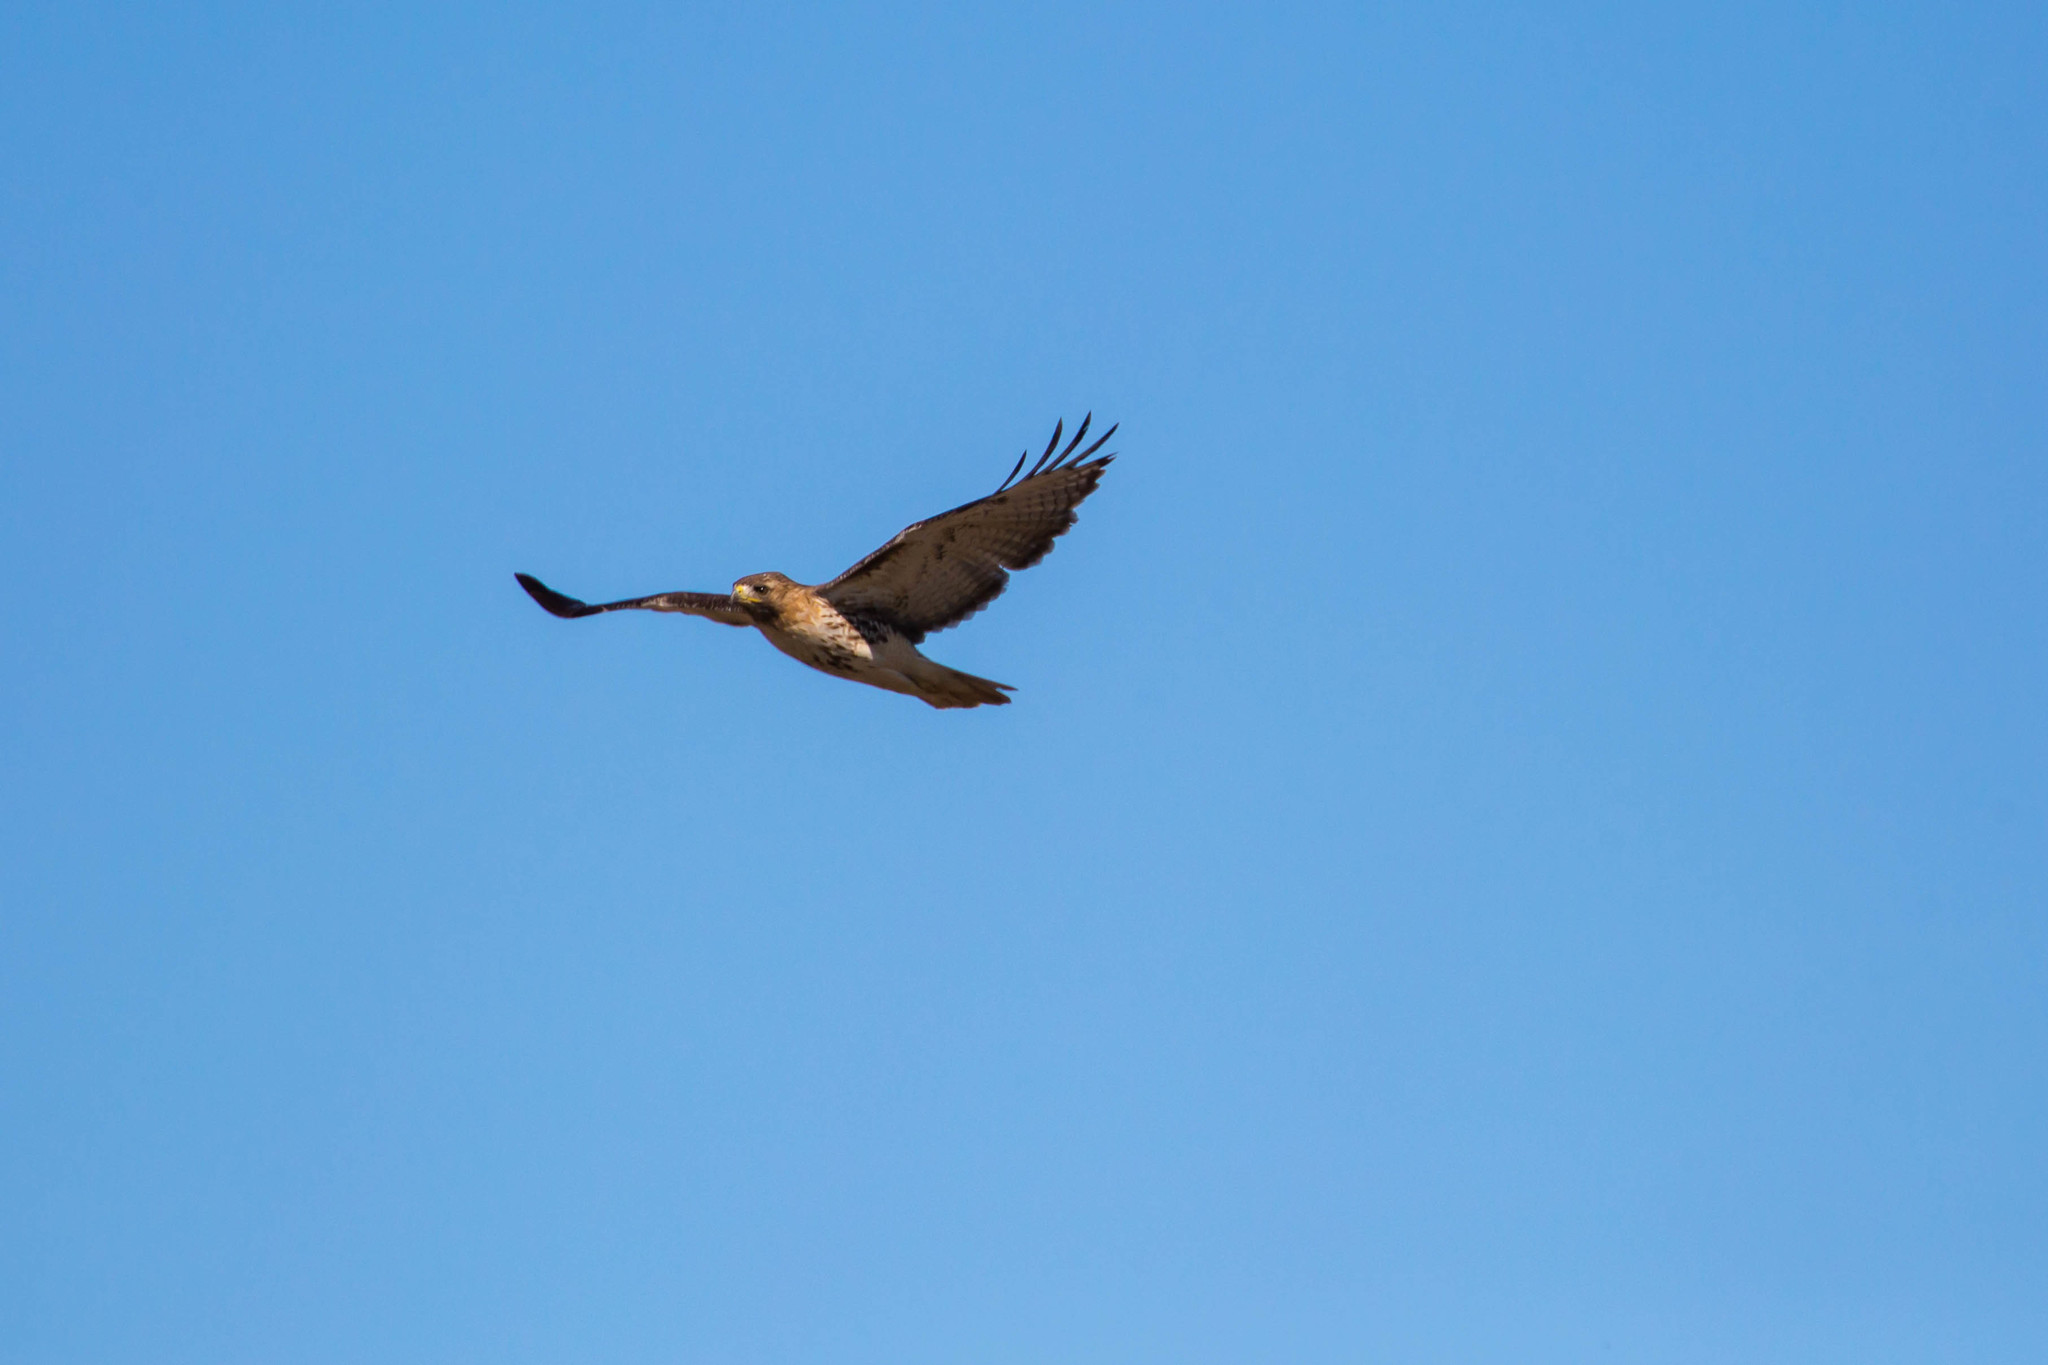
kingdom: Animalia
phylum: Chordata
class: Aves
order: Accipitriformes
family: Accipitridae
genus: Buteo
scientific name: Buteo jamaicensis
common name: Red-tailed hawk
